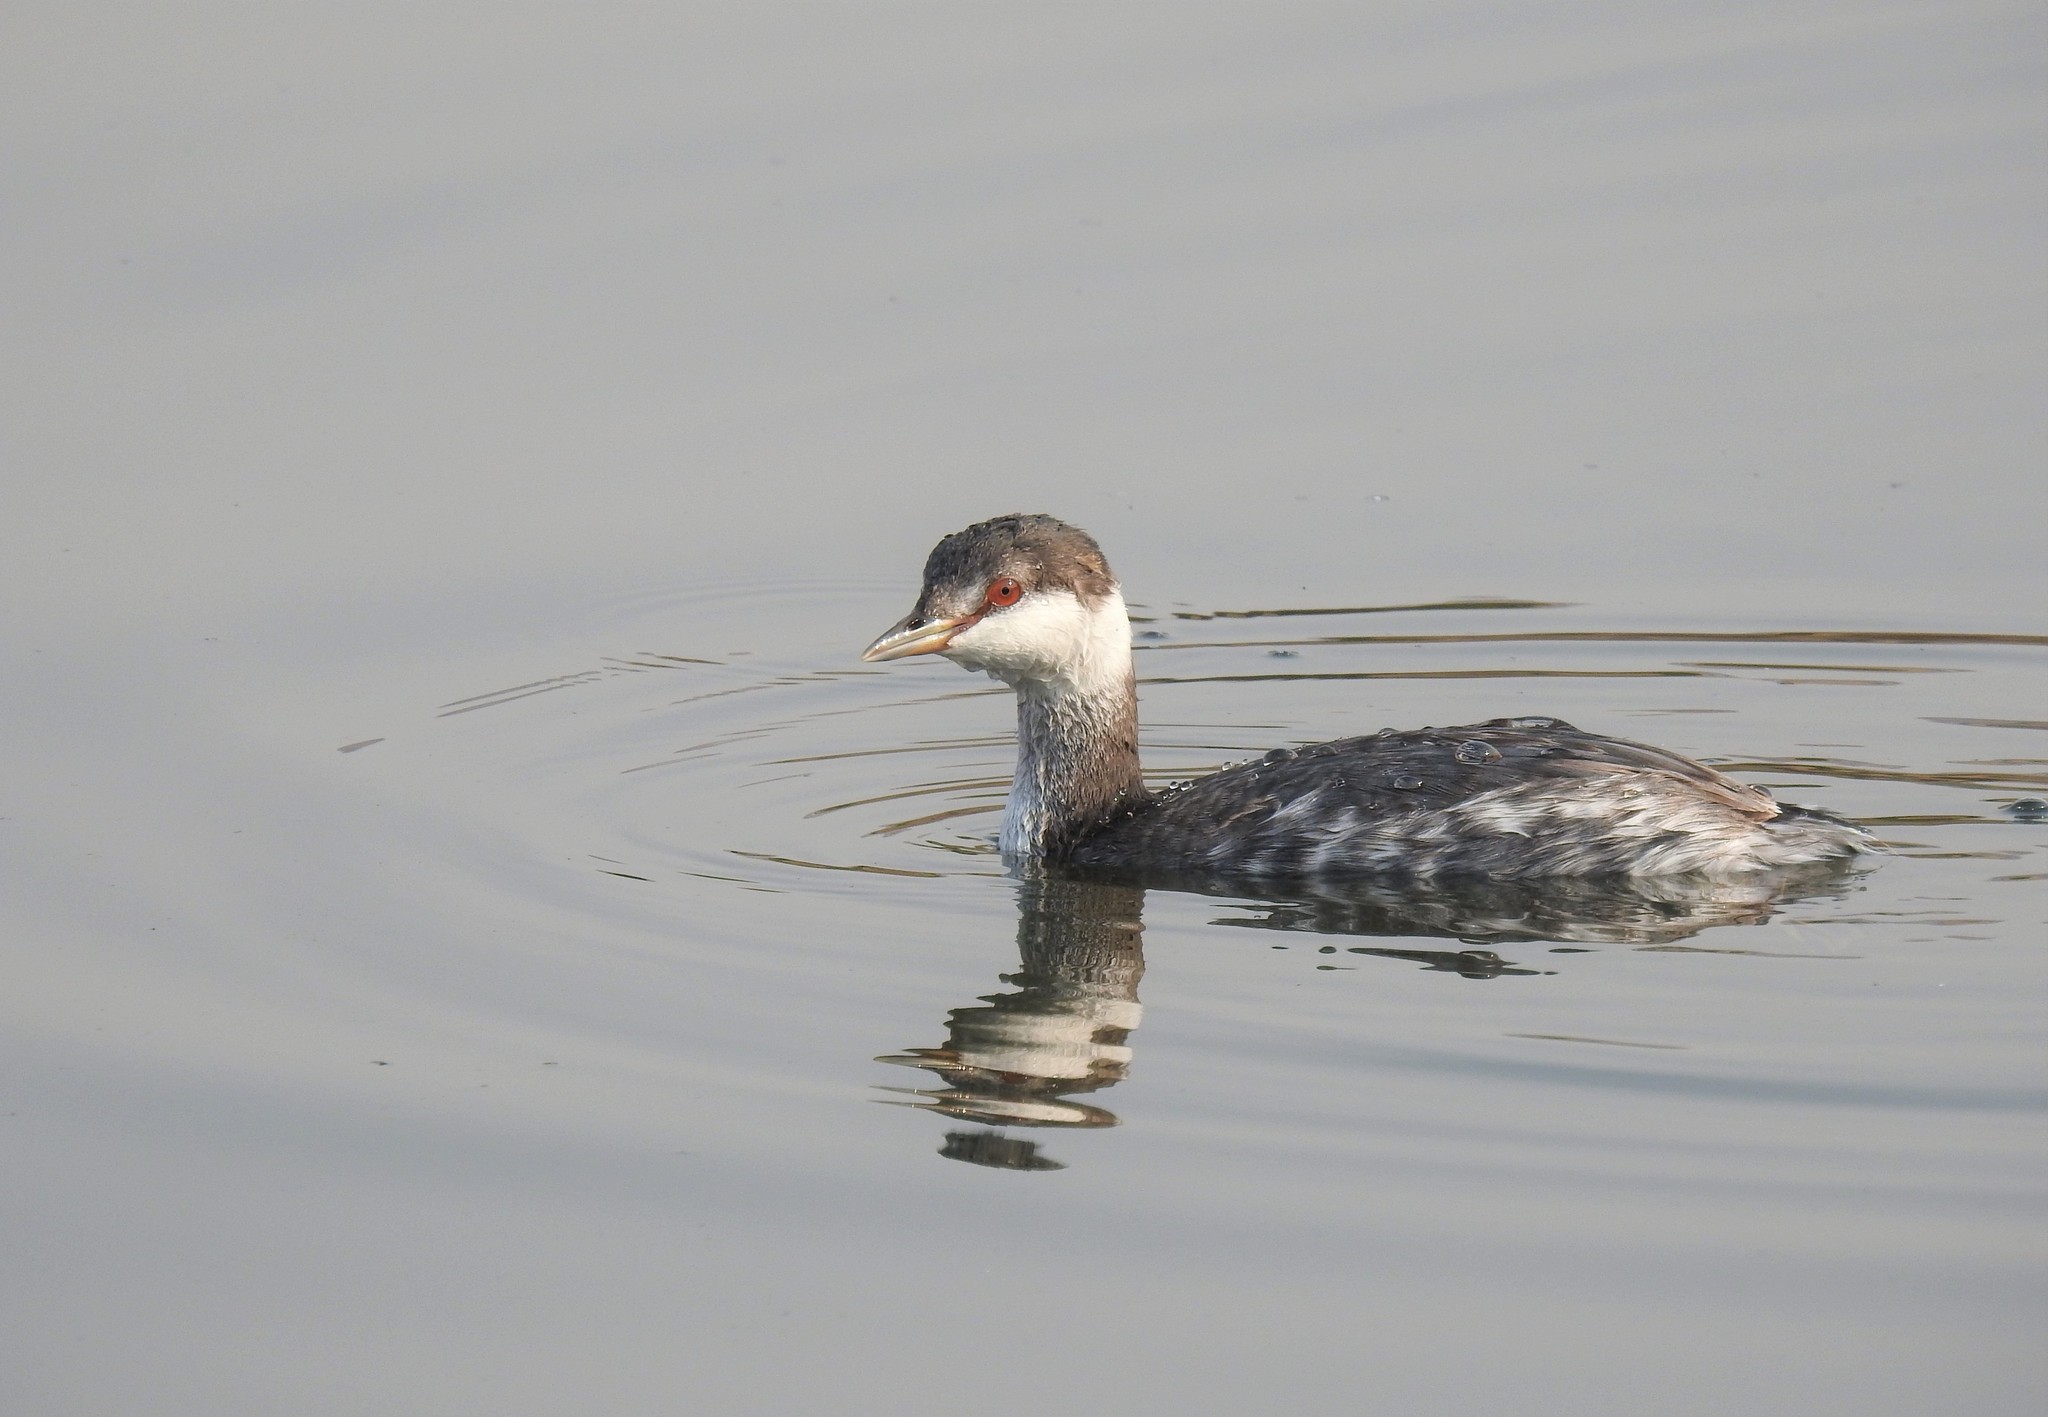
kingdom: Animalia
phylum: Chordata
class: Aves
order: Podicipediformes
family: Podicipedidae
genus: Podiceps
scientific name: Podiceps auritus
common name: Horned grebe
